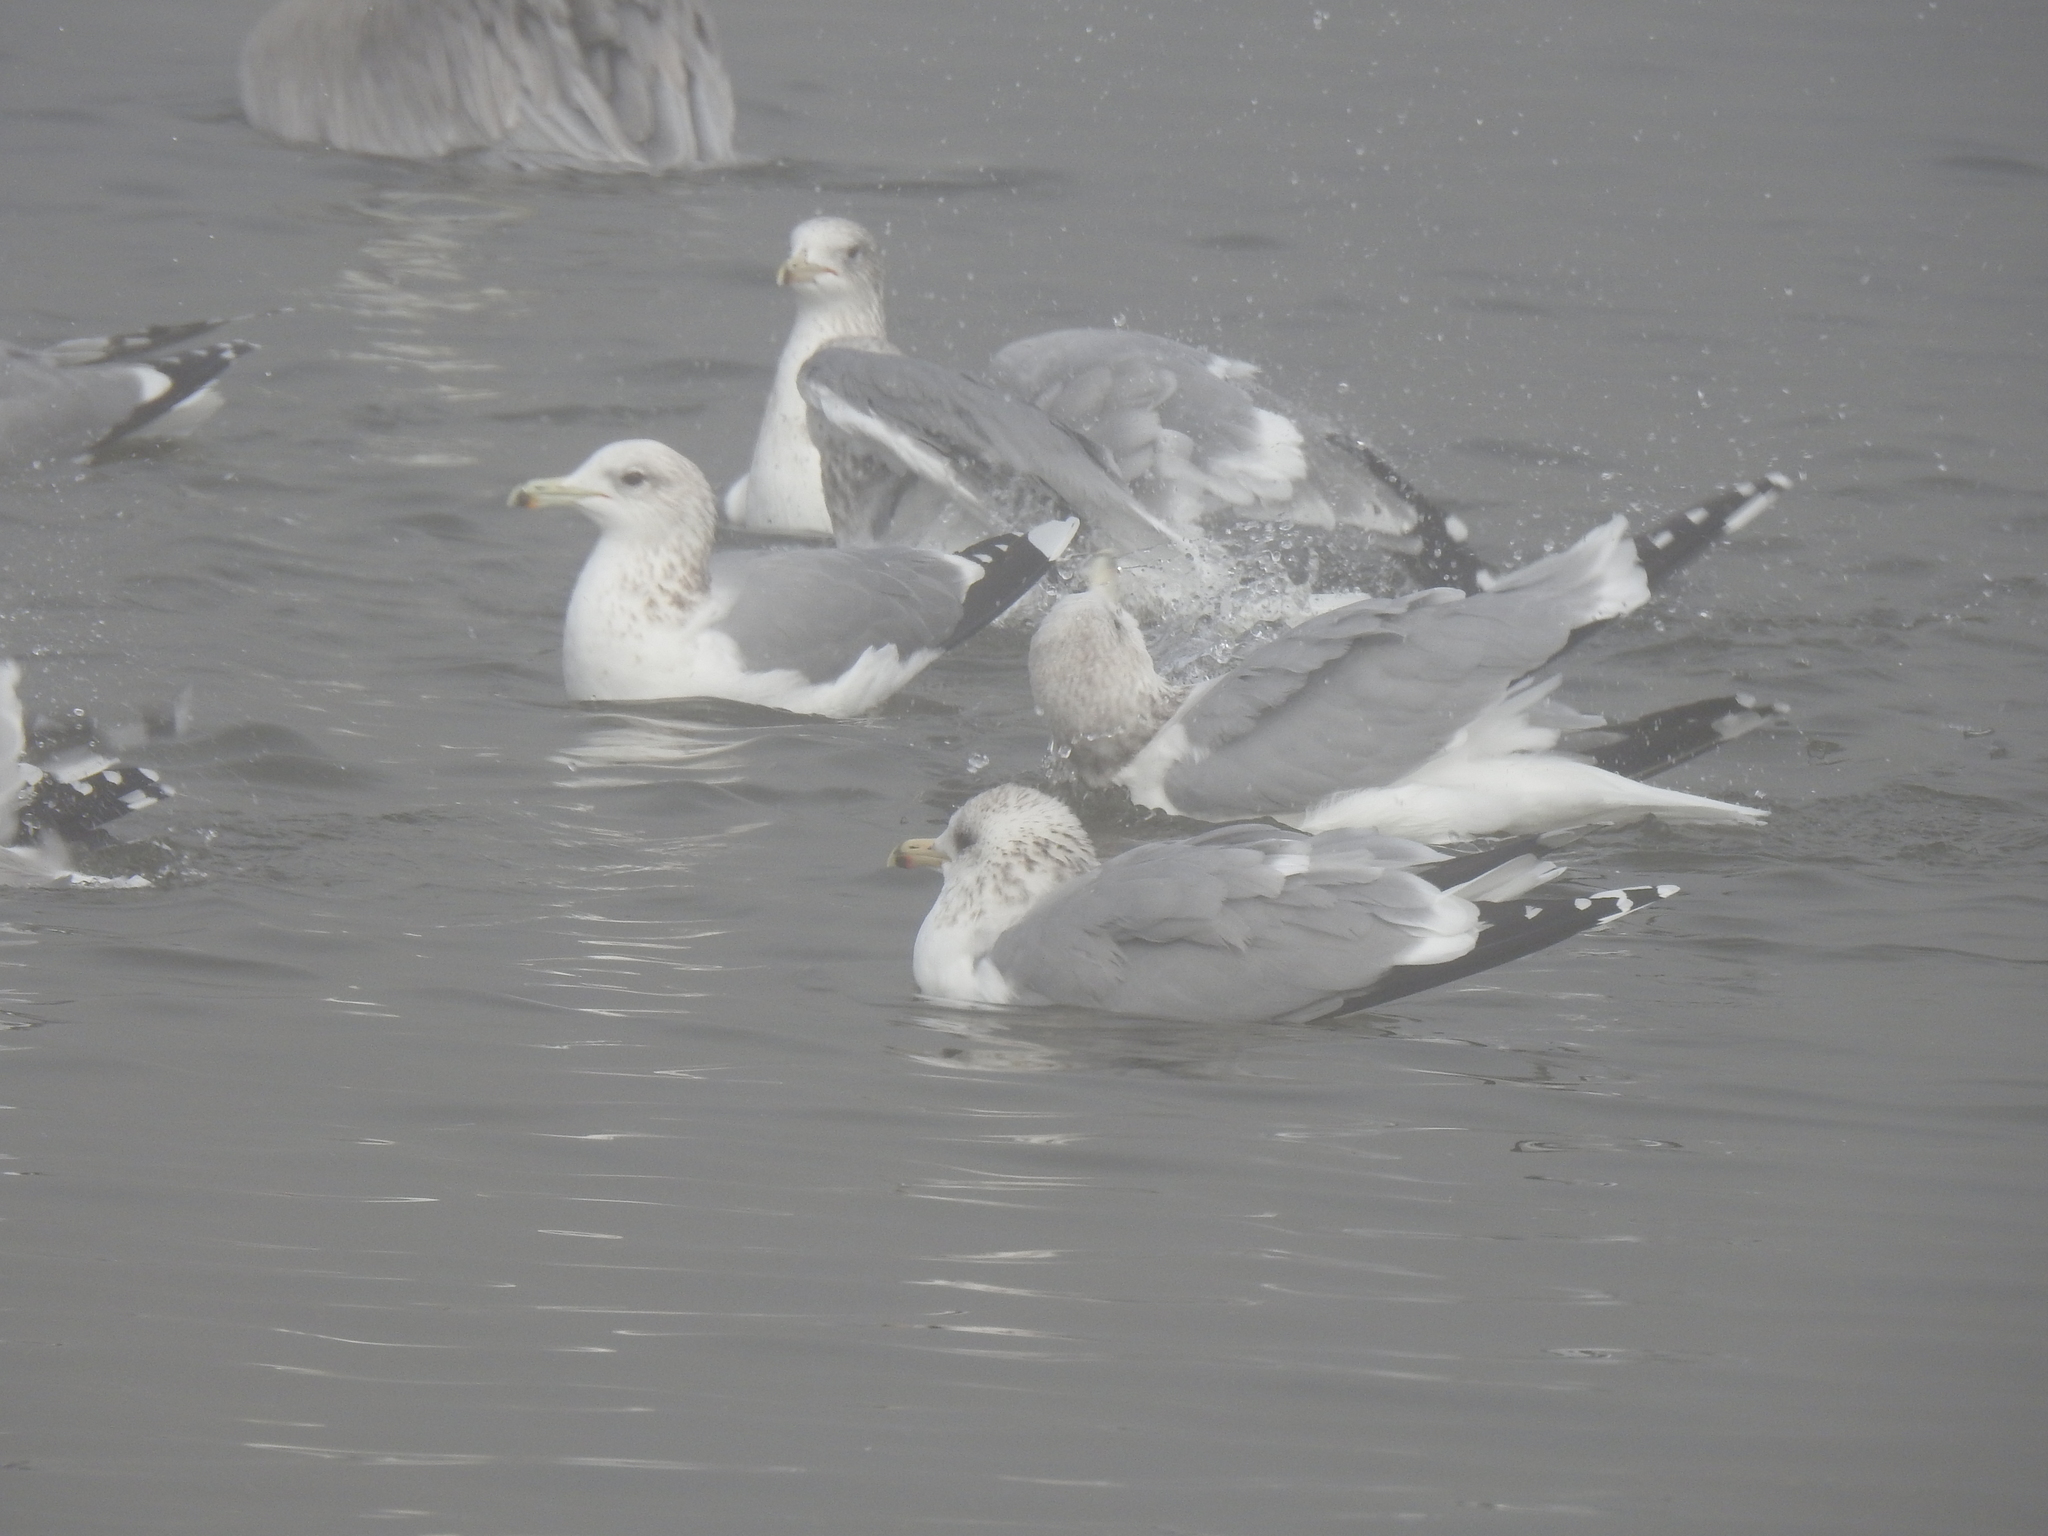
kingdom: Animalia
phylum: Chordata
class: Aves
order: Charadriiformes
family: Laridae
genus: Larus
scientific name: Larus californicus
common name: California gull
